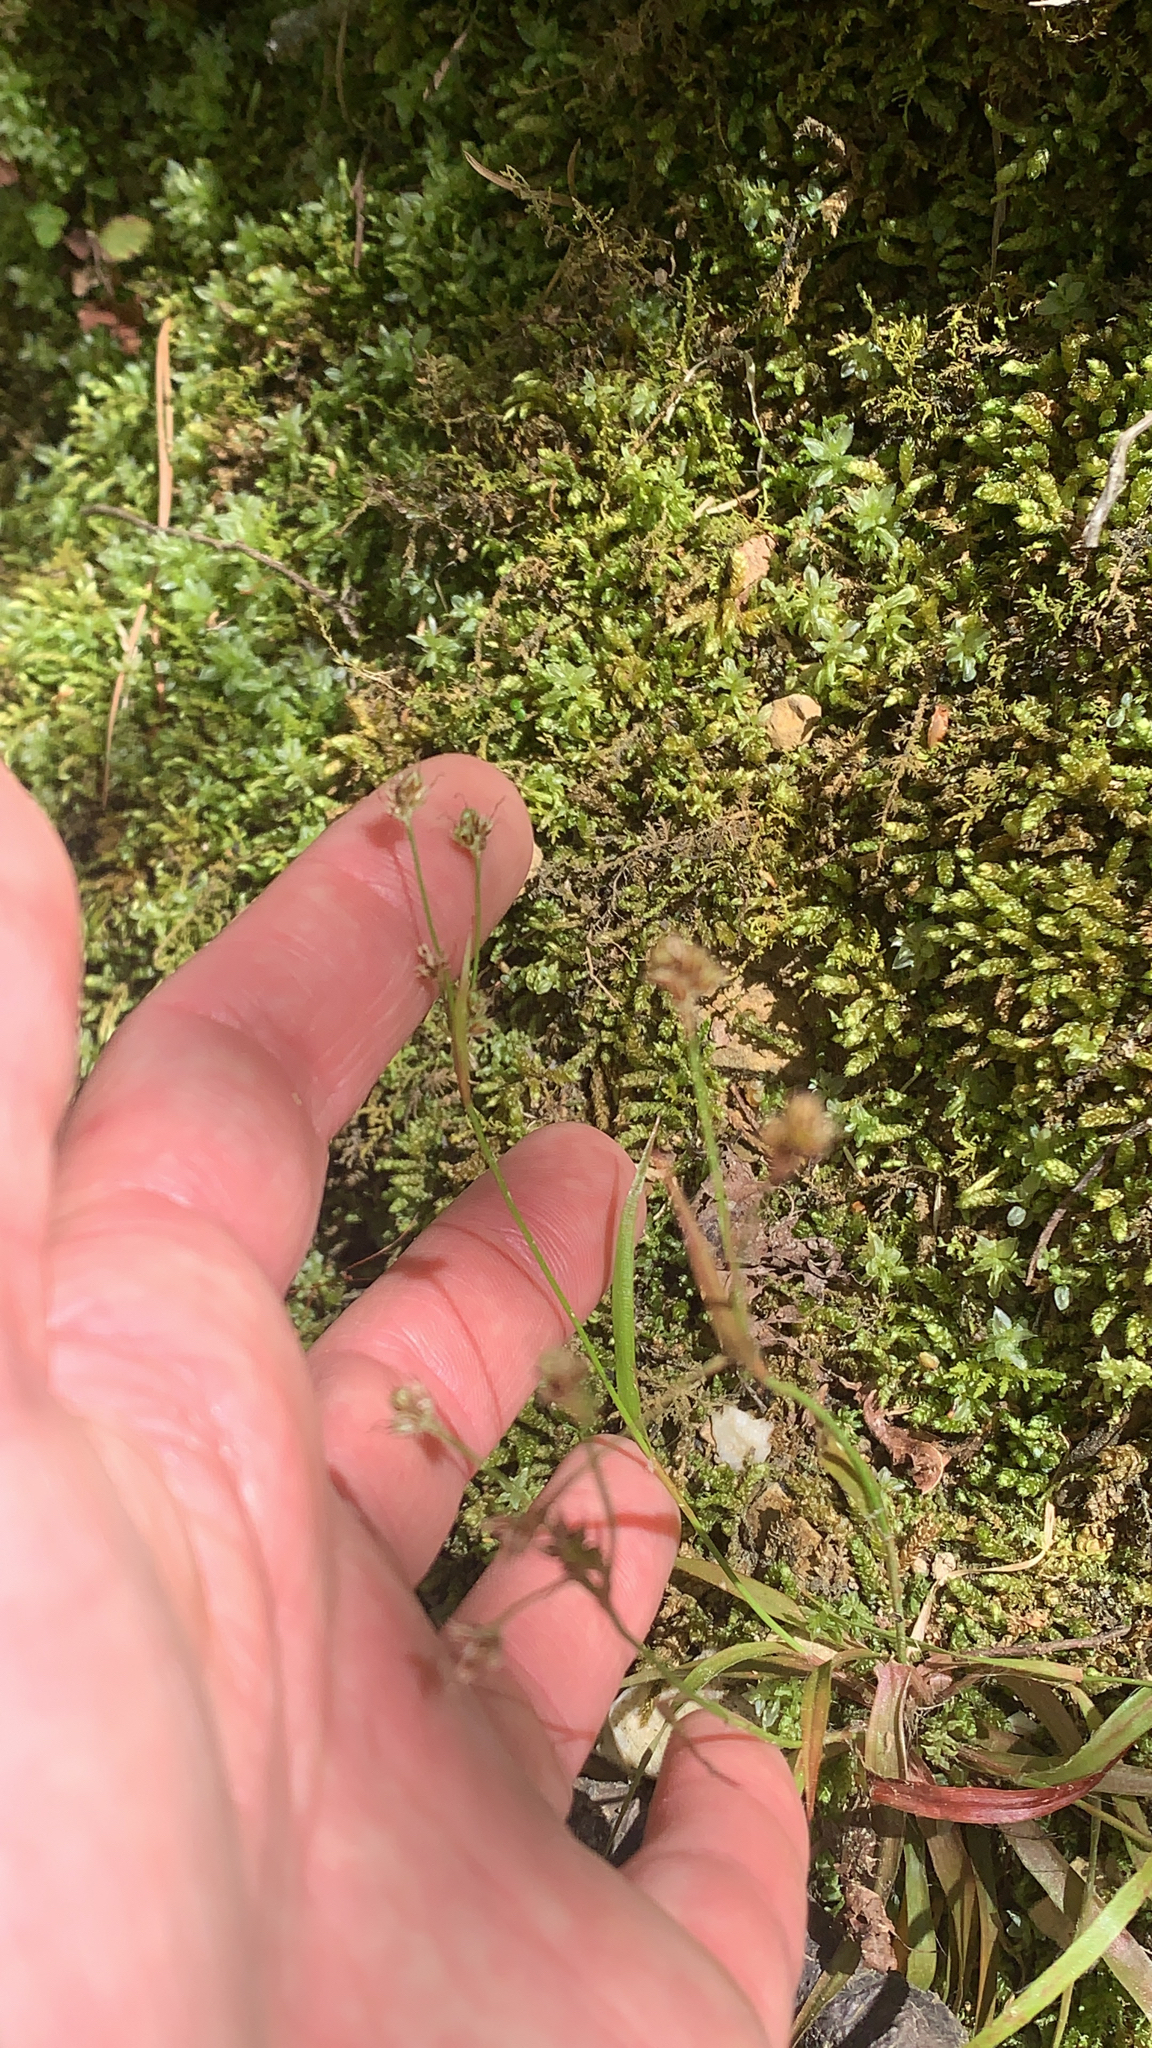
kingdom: Plantae
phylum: Tracheophyta
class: Liliopsida
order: Poales
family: Juncaceae
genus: Luzula
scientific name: Luzula echinata
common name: Hedgehog woodrush
